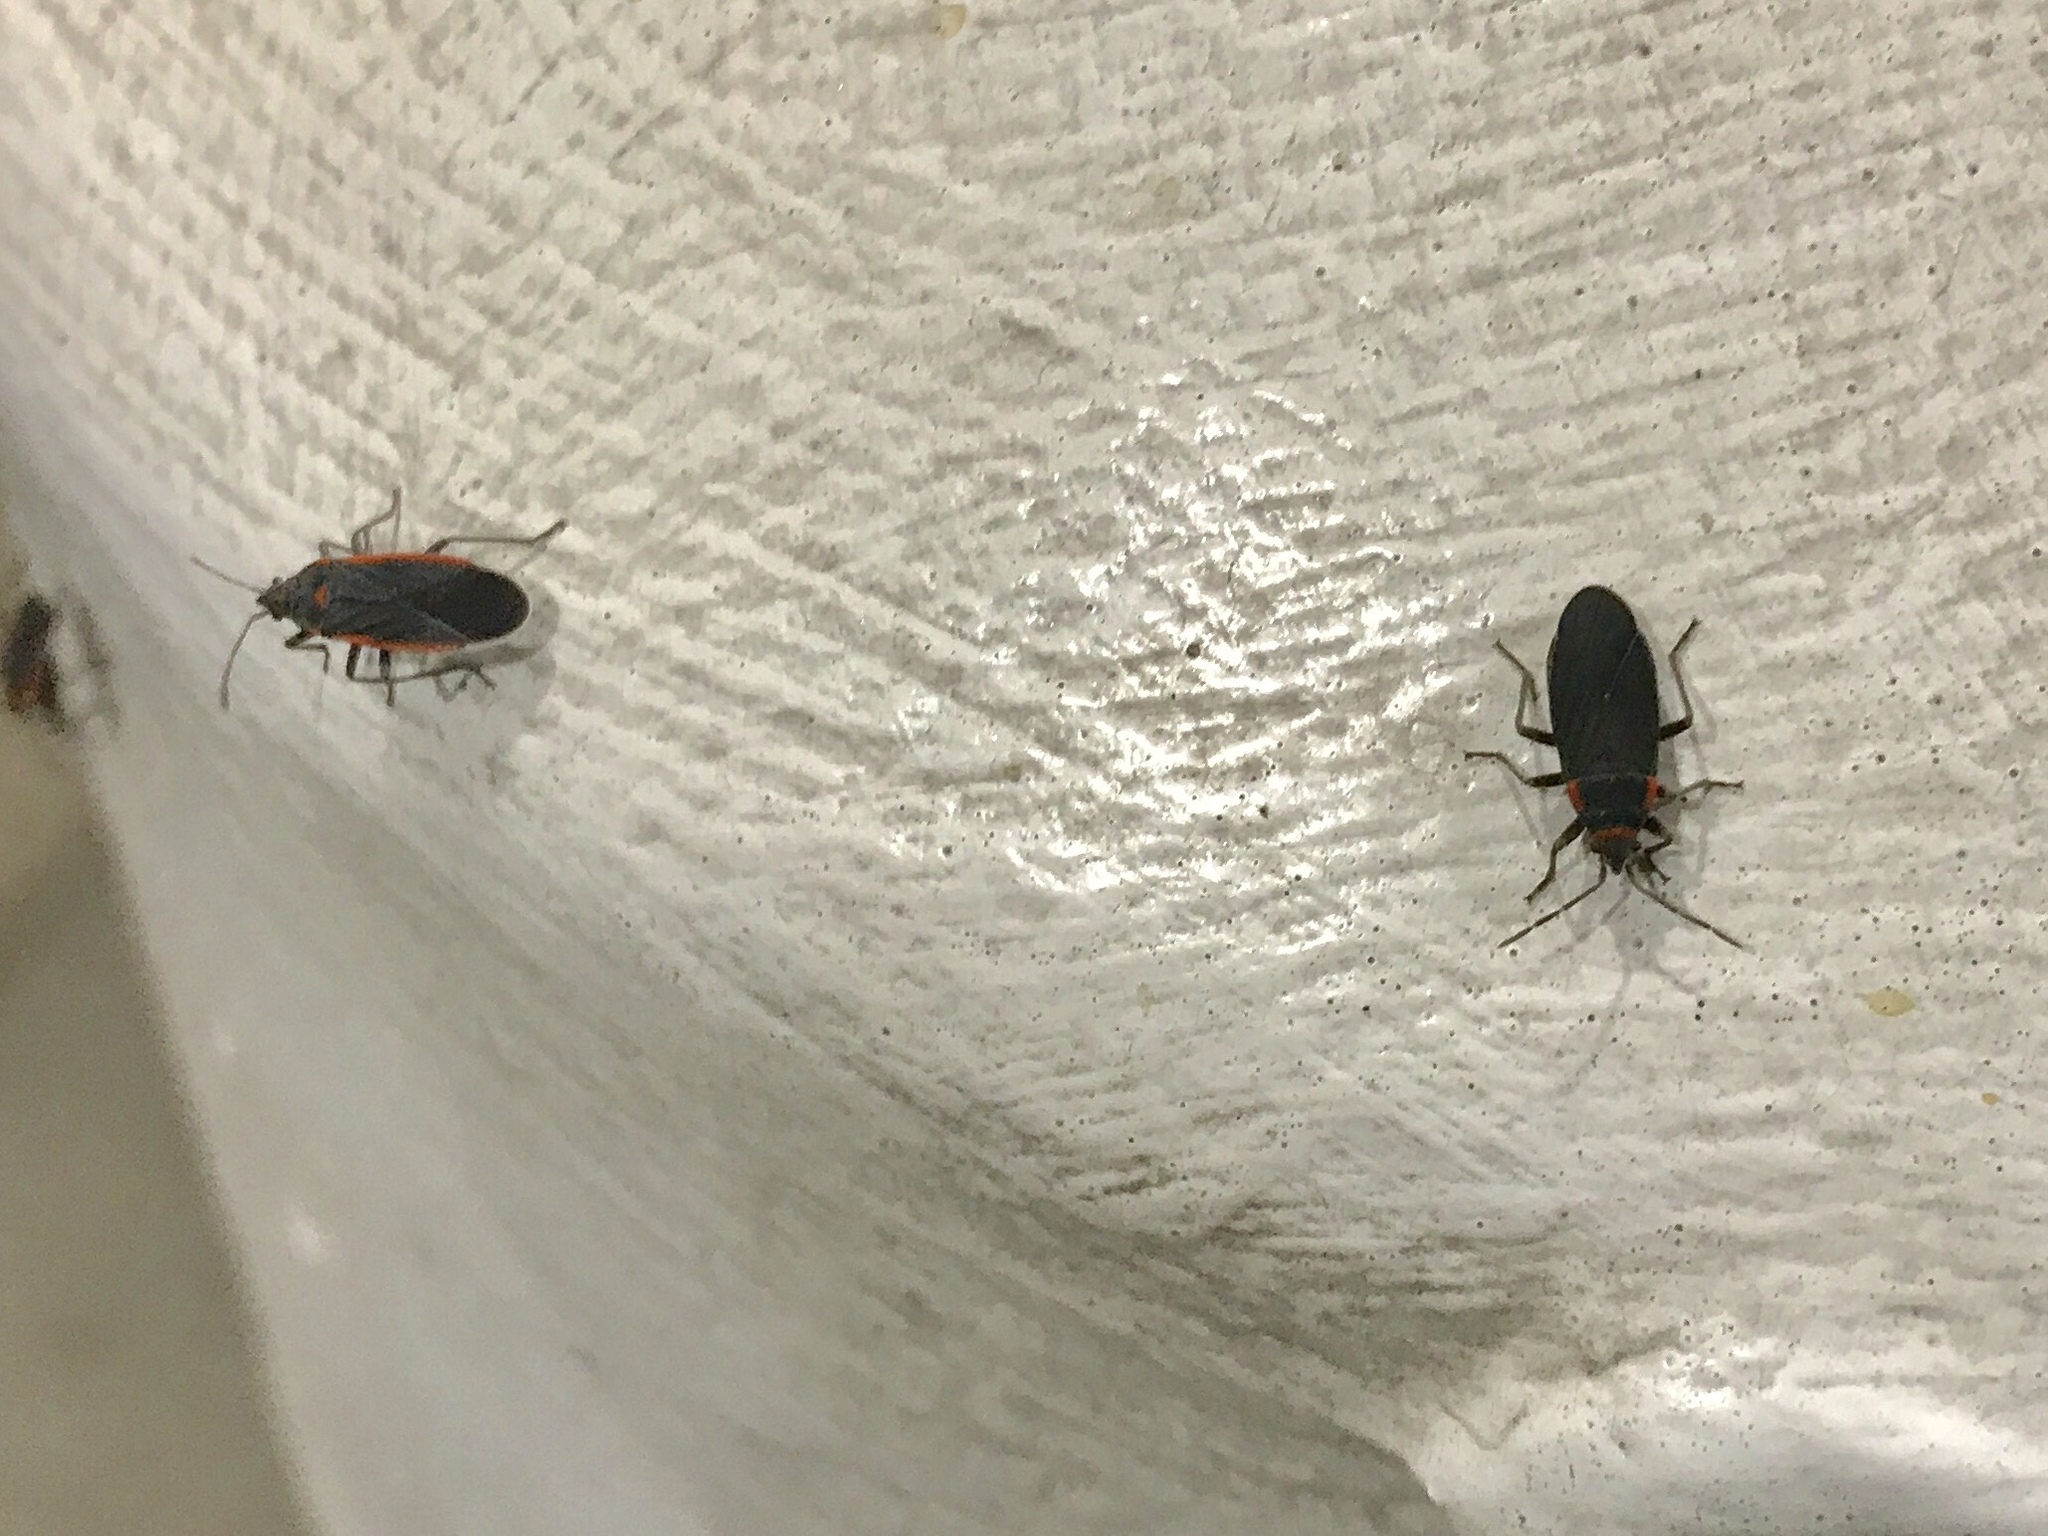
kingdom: Animalia
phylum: Arthropoda
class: Insecta
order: Hemiptera
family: Lygaeidae
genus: Melacoryphus
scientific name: Melacoryphus lateralis
